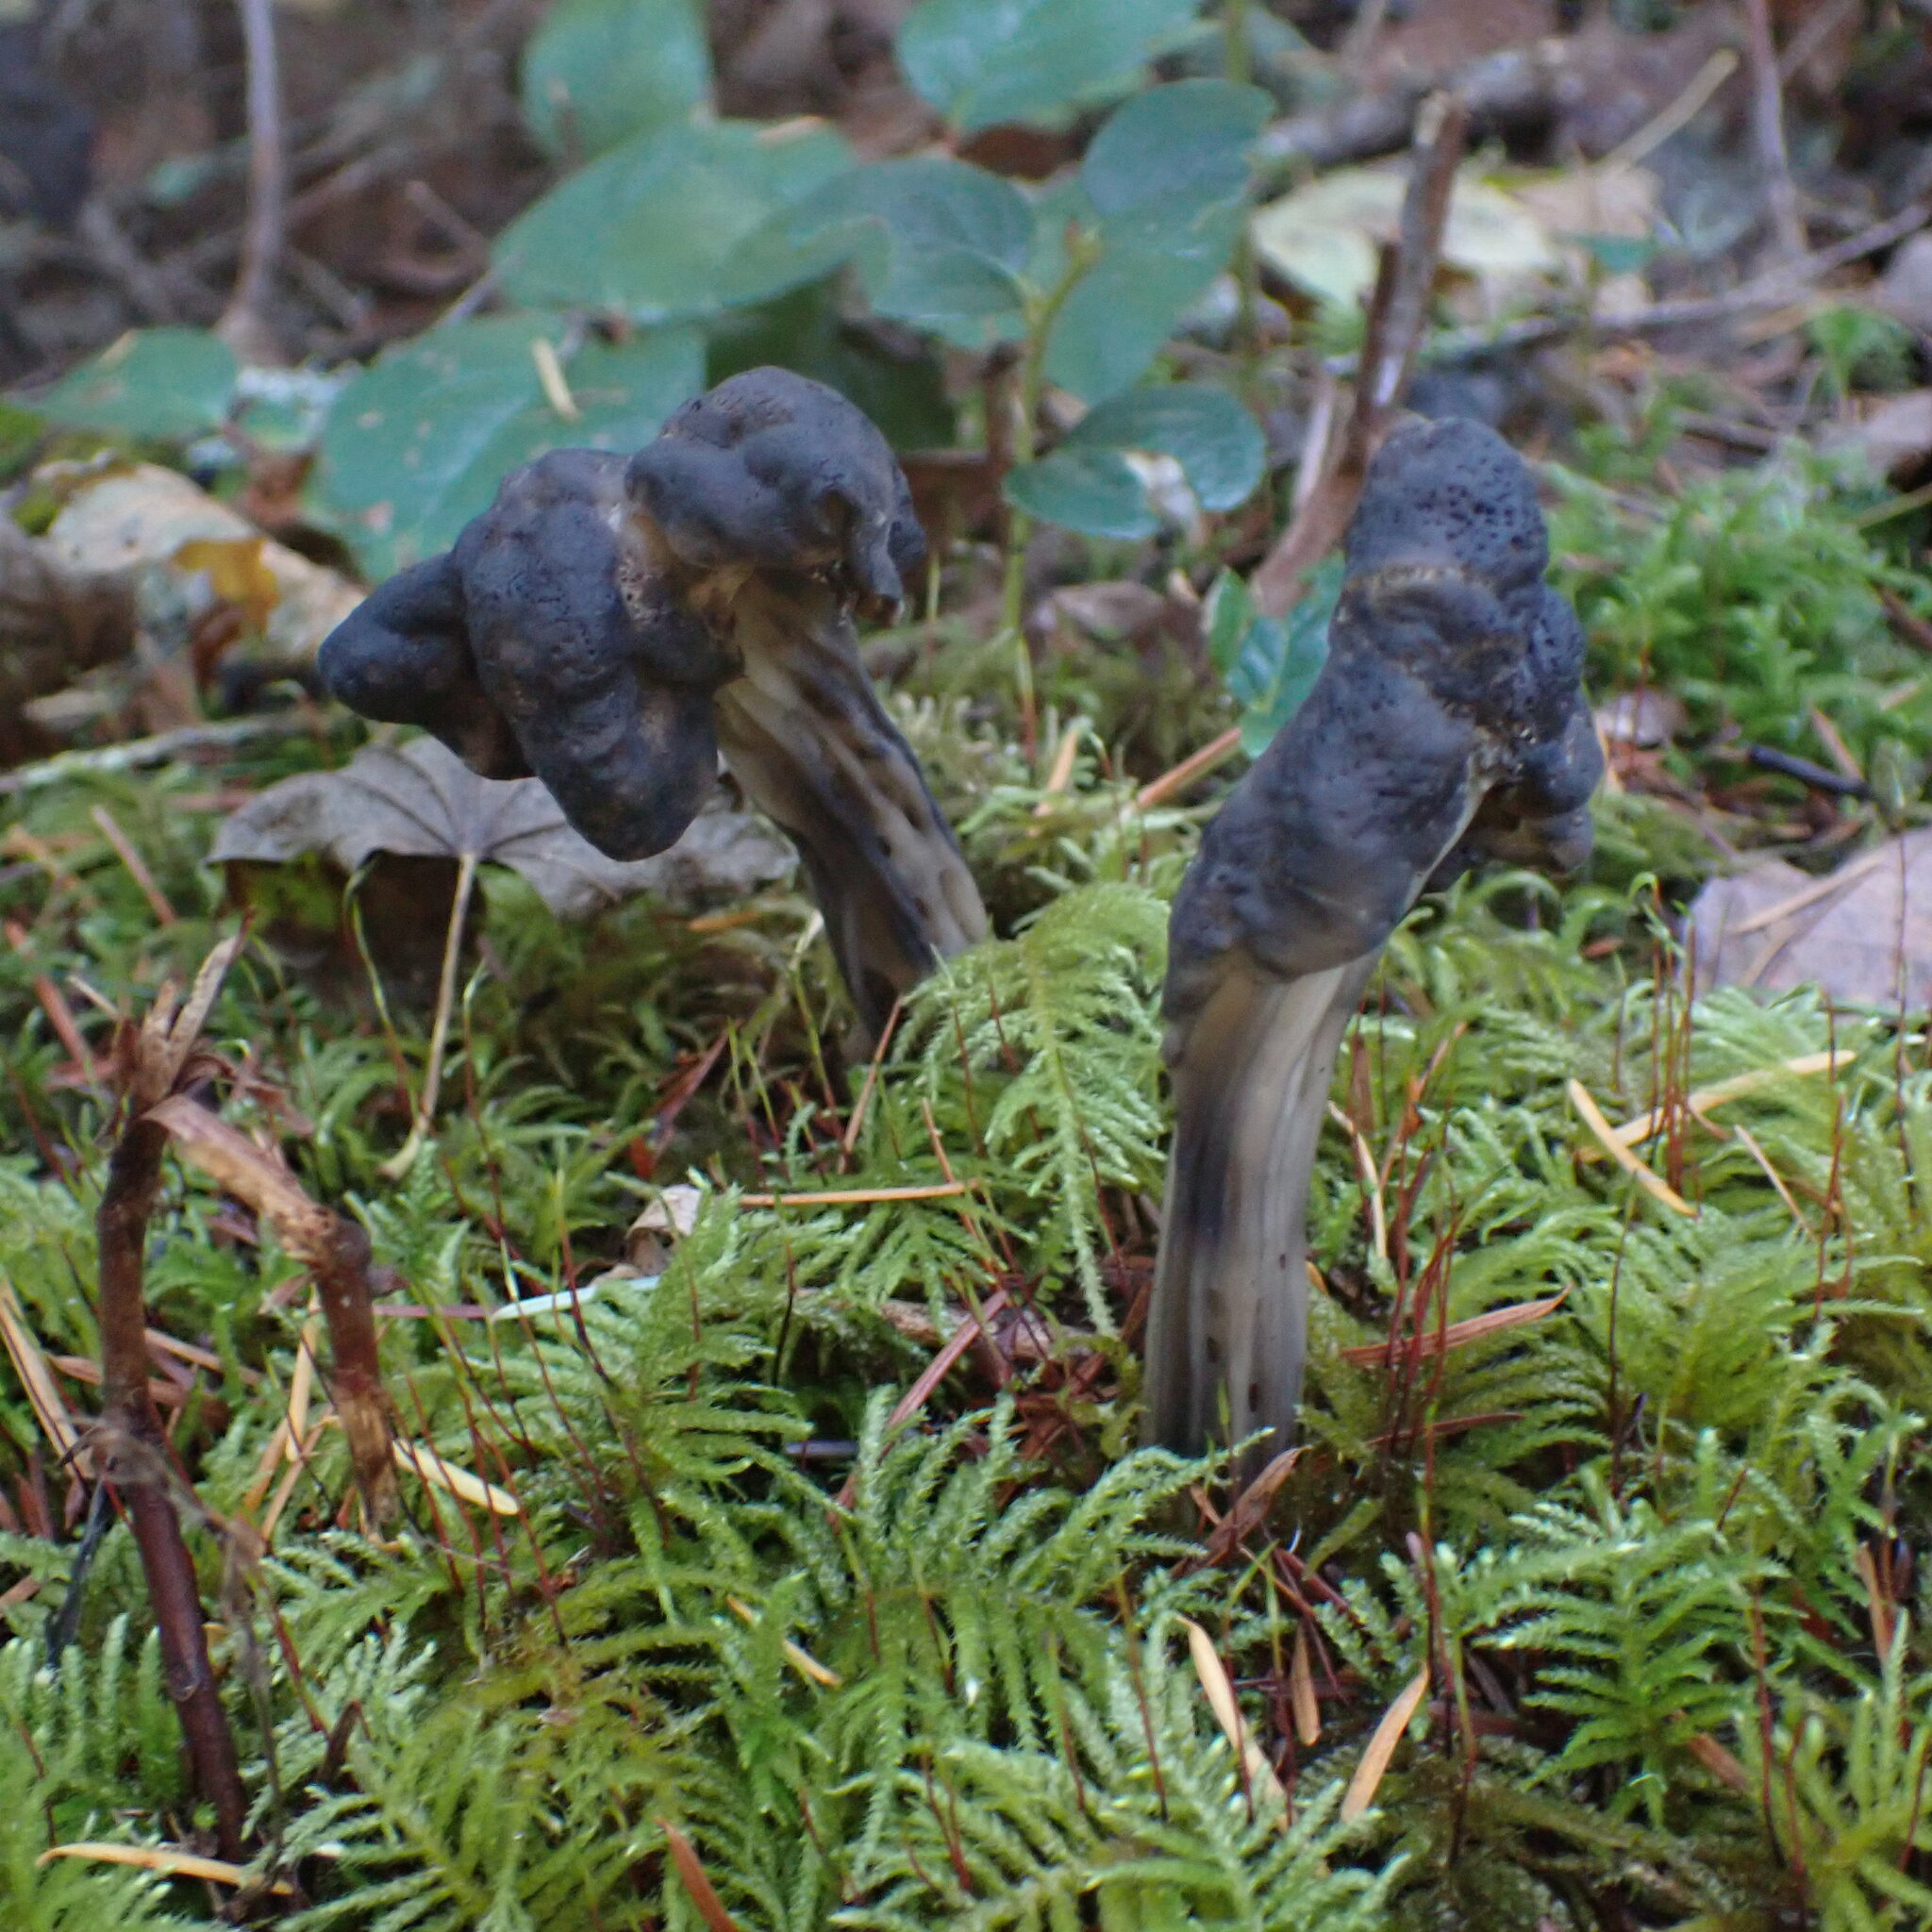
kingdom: Fungi
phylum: Ascomycota
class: Pezizomycetes
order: Pezizales
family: Helvellaceae
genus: Helvella
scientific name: Helvella vespertina
